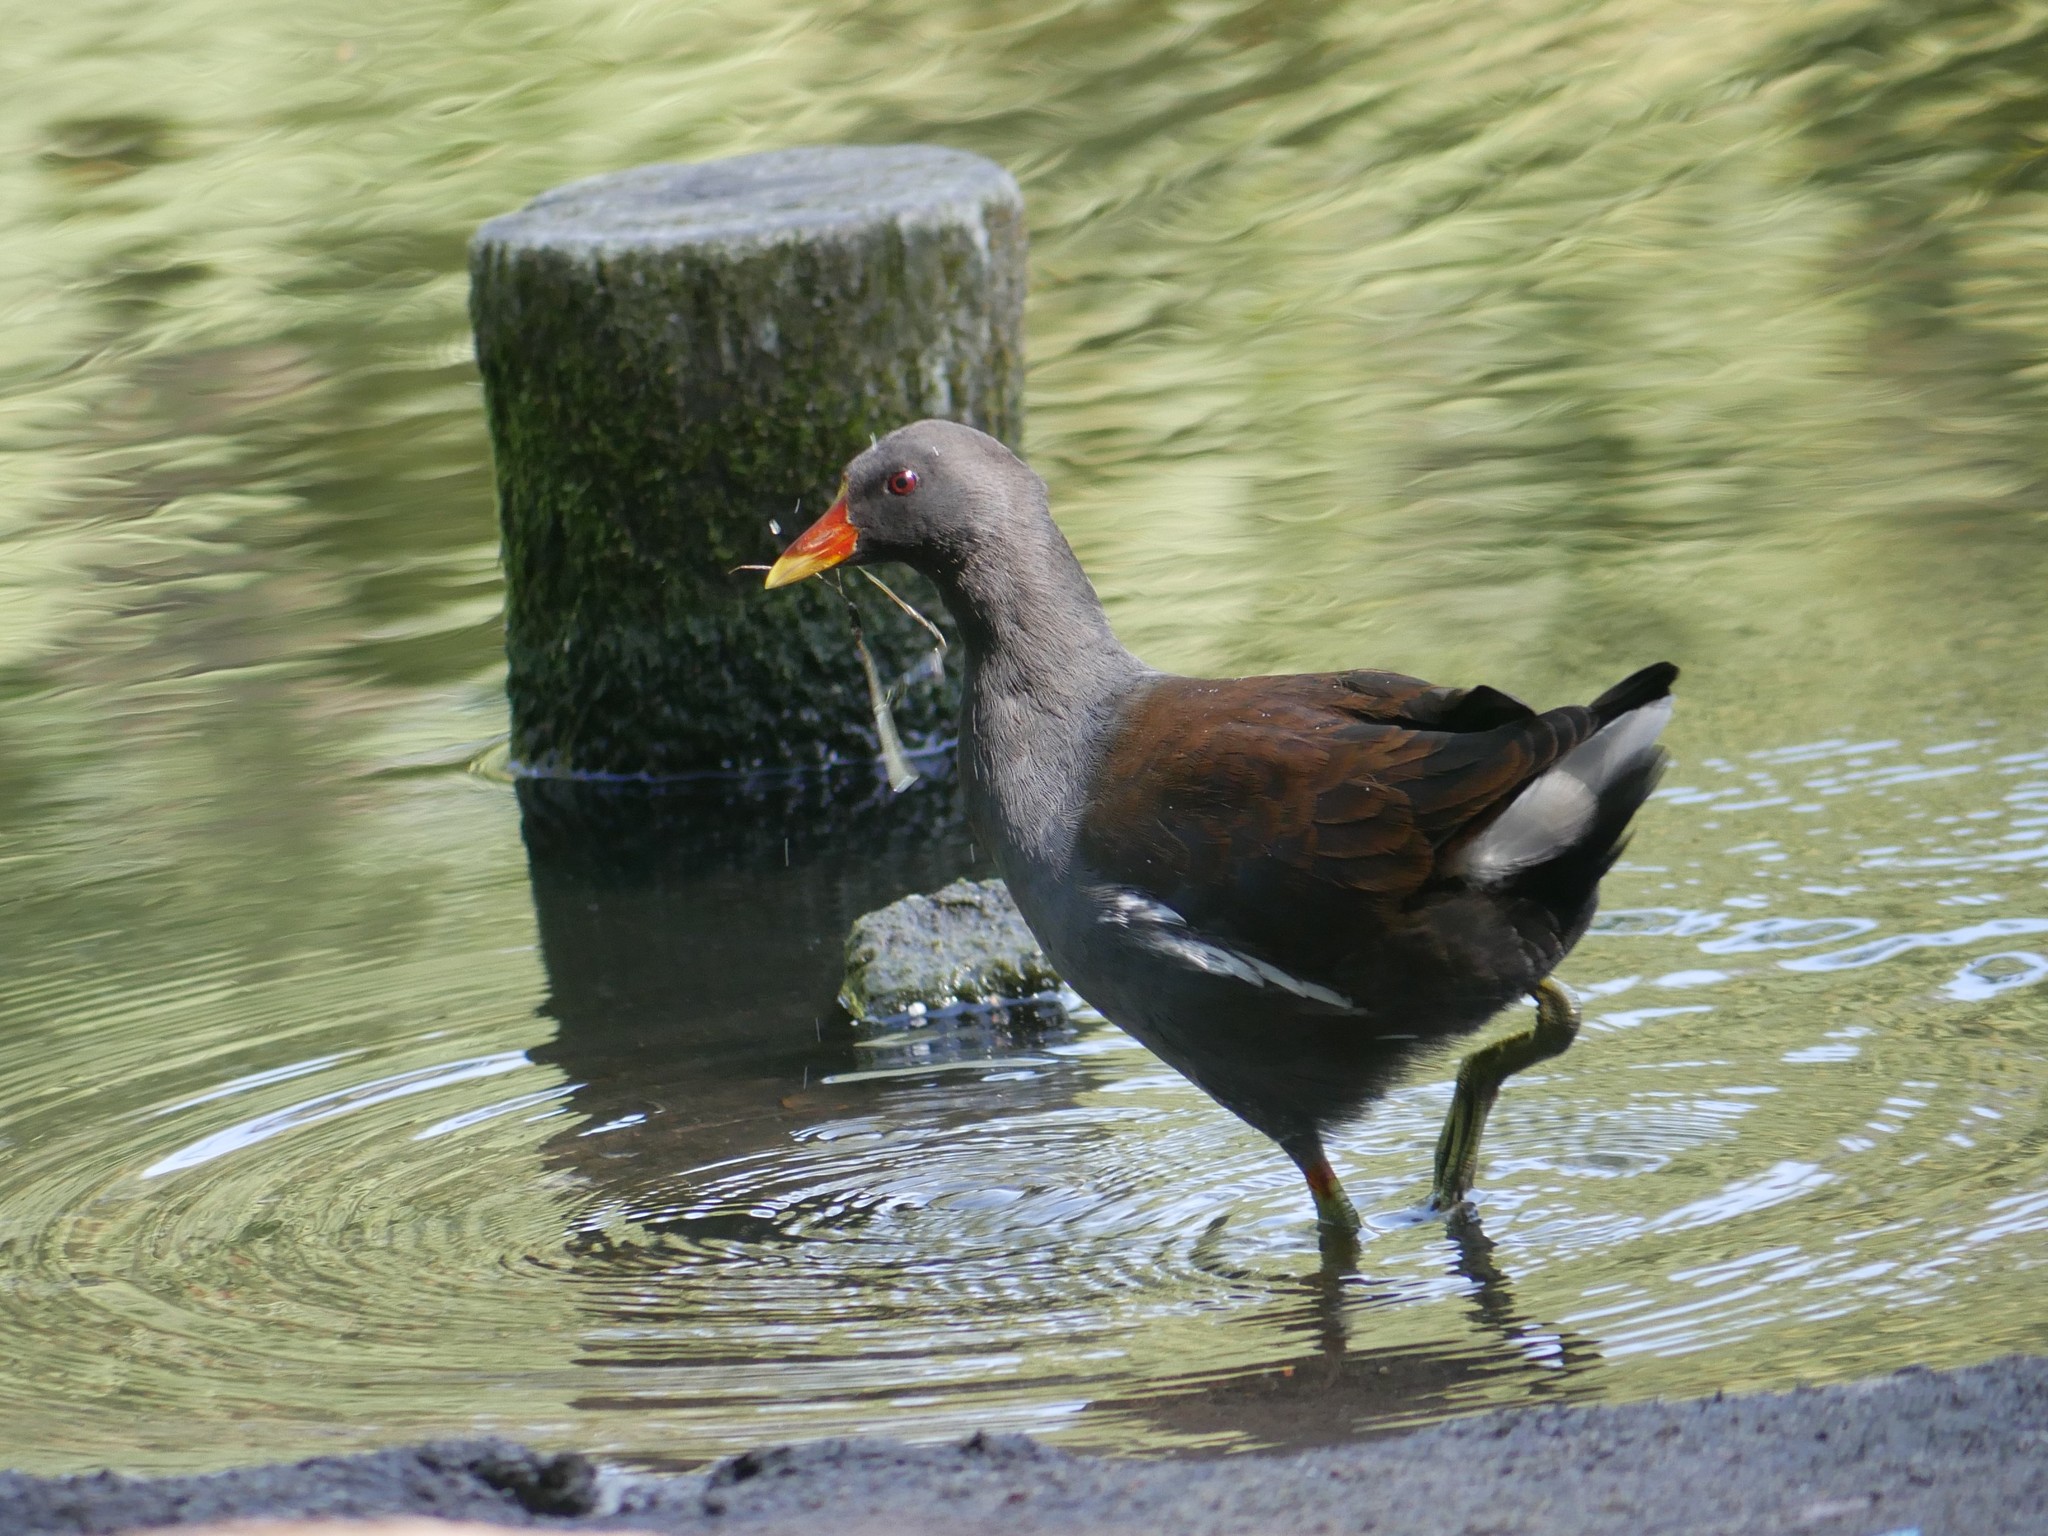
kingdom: Animalia
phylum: Chordata
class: Aves
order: Gruiformes
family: Rallidae
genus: Gallinula
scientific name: Gallinula chloropus
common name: Common moorhen
